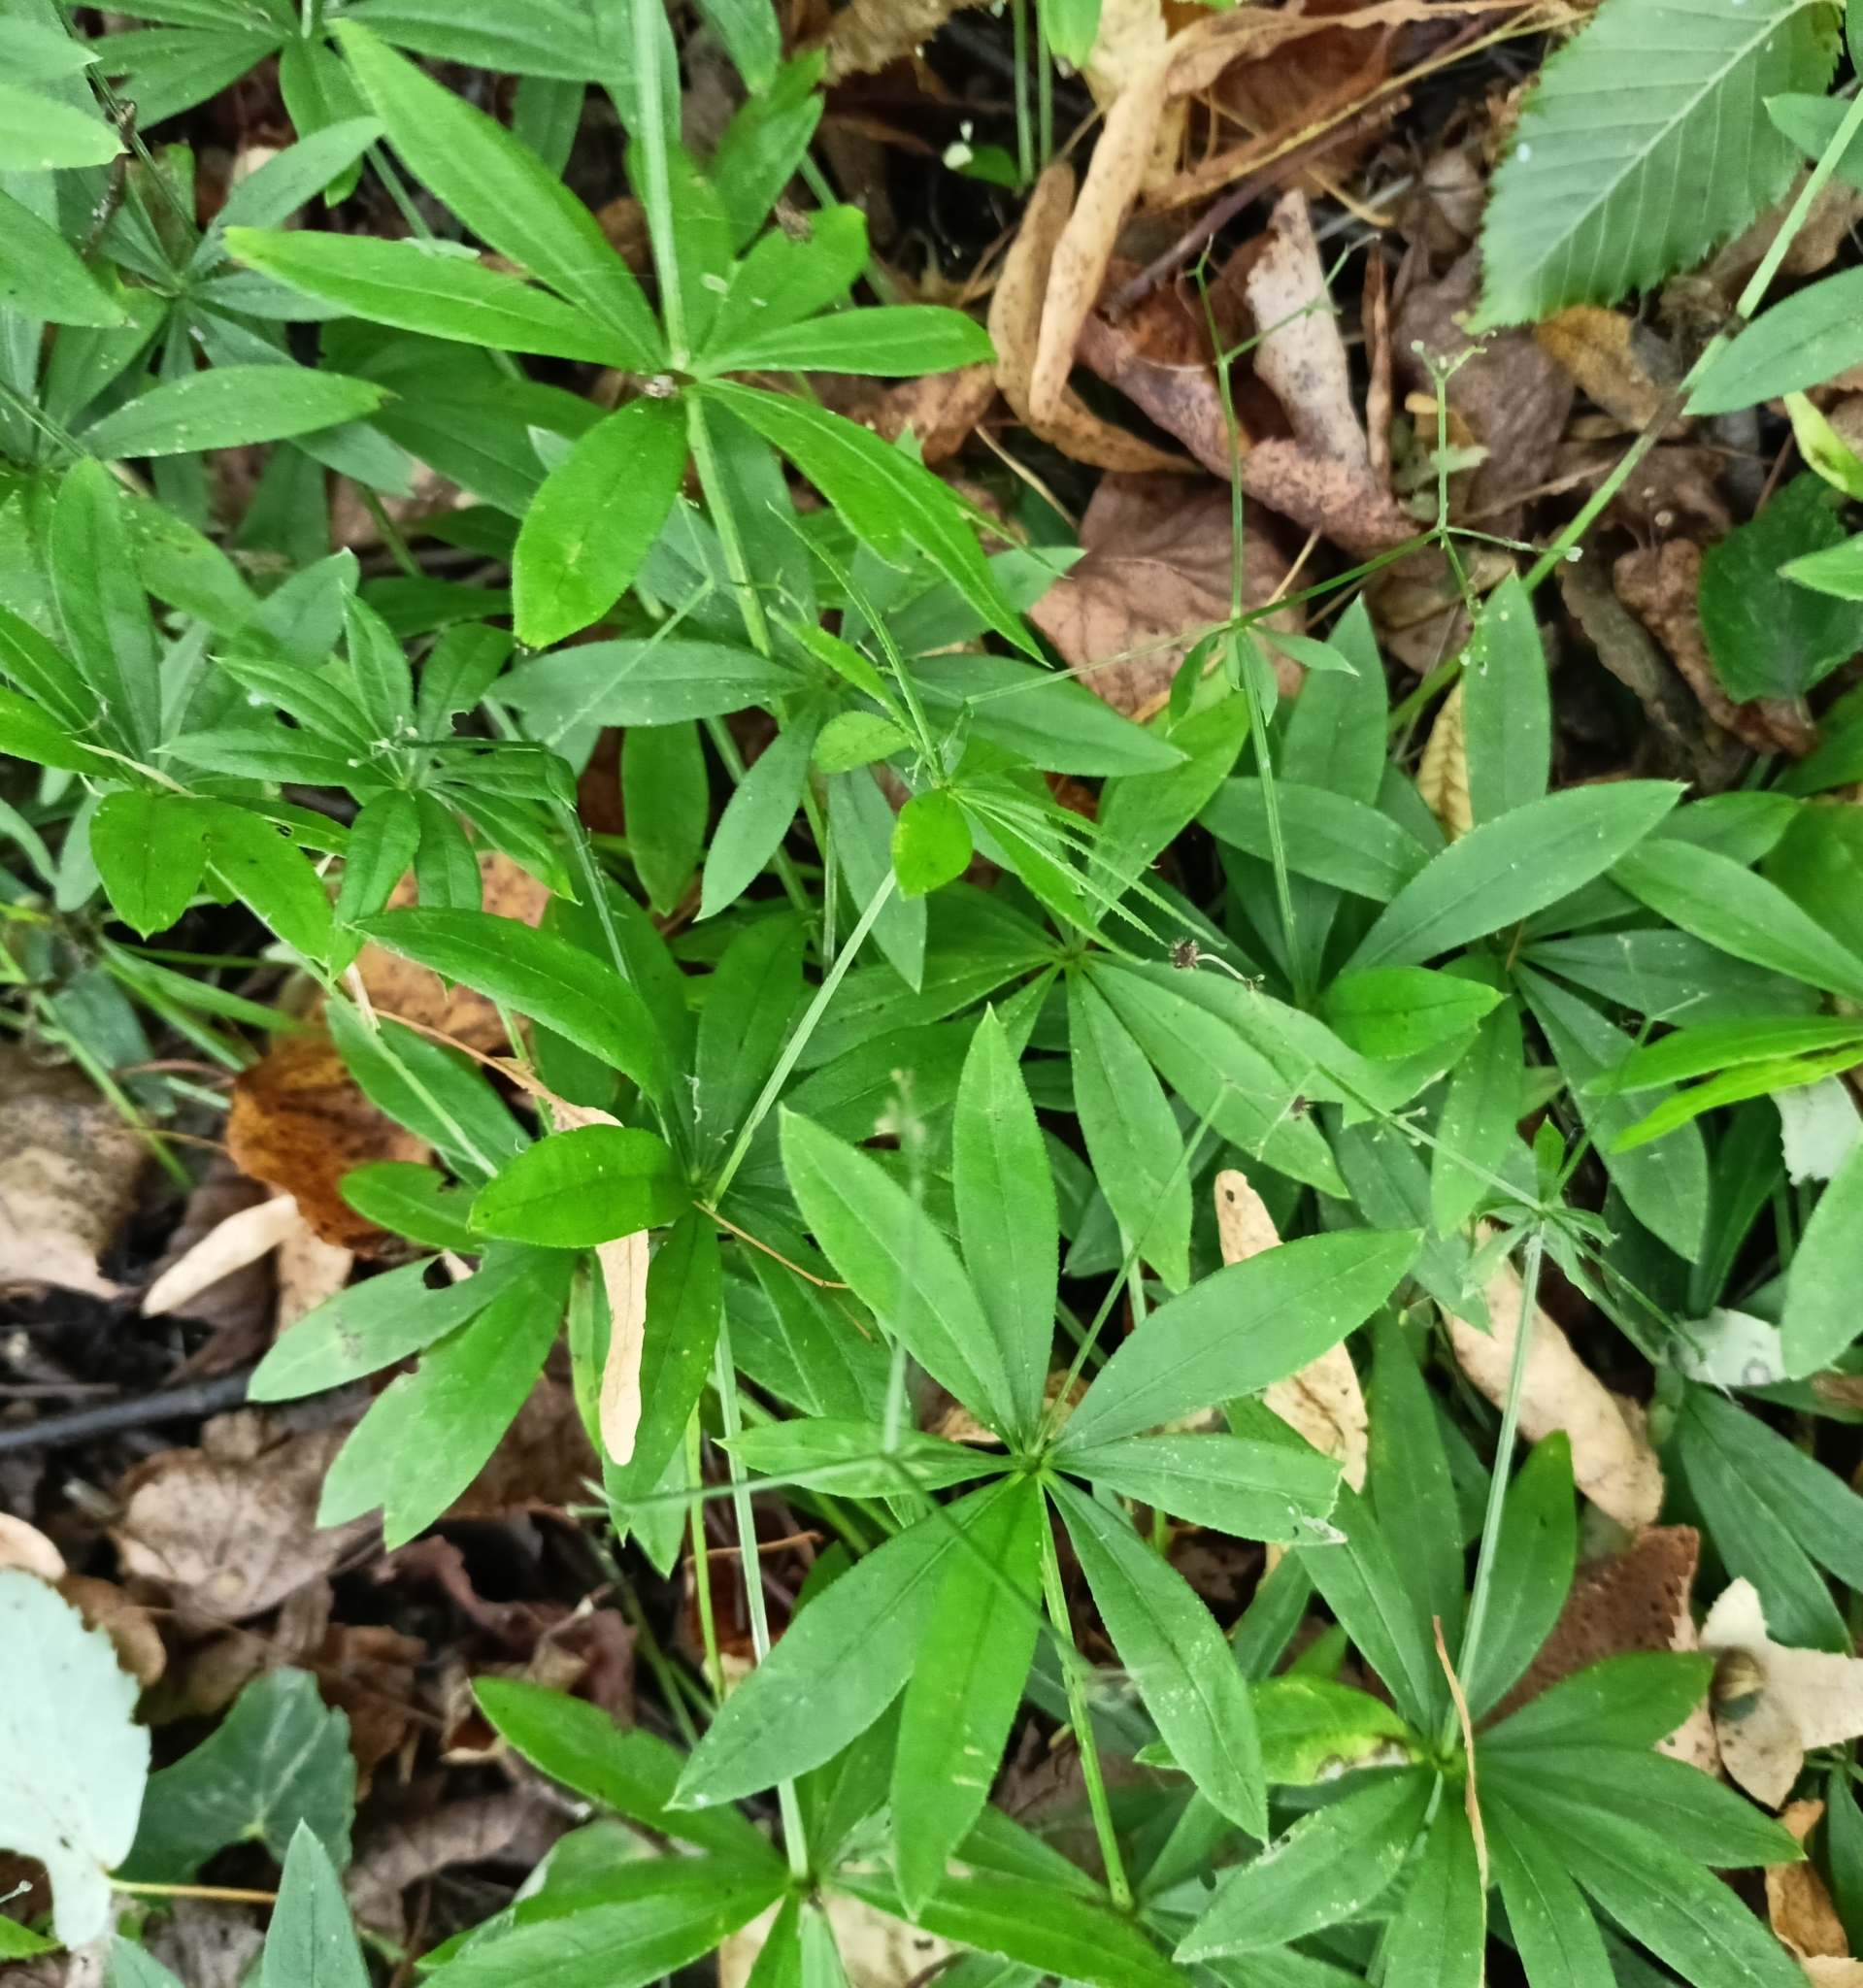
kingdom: Plantae
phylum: Tracheophyta
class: Magnoliopsida
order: Gentianales
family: Rubiaceae
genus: Galium
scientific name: Galium odoratum
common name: Sweet woodruff
